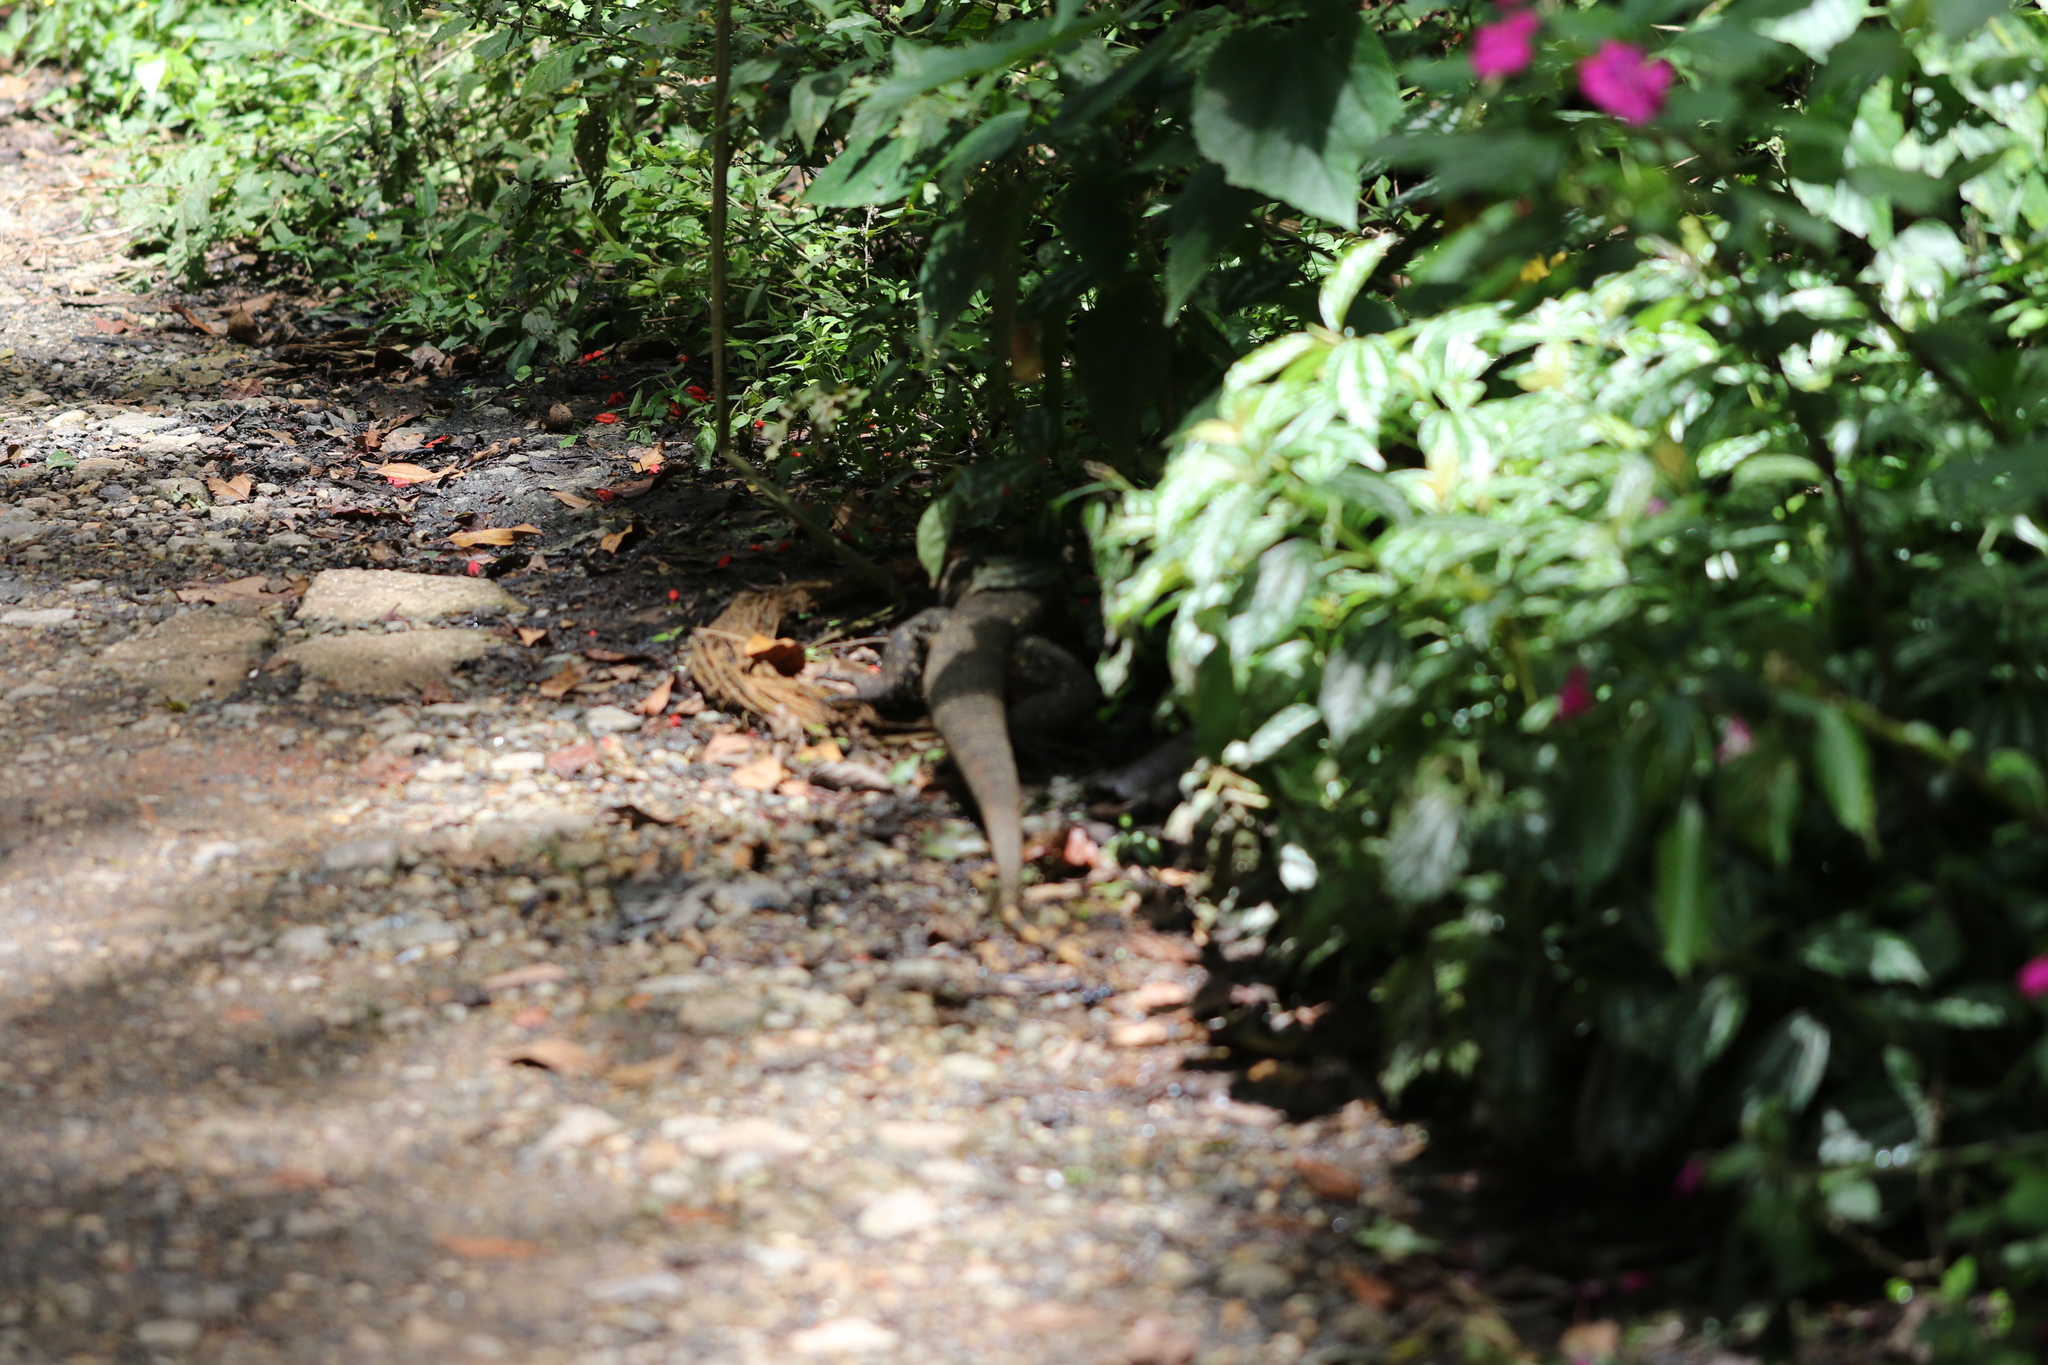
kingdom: Animalia
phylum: Chordata
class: Squamata
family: Teiidae
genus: Salvator
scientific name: Salvator merianae
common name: Argentine black and white tegu
